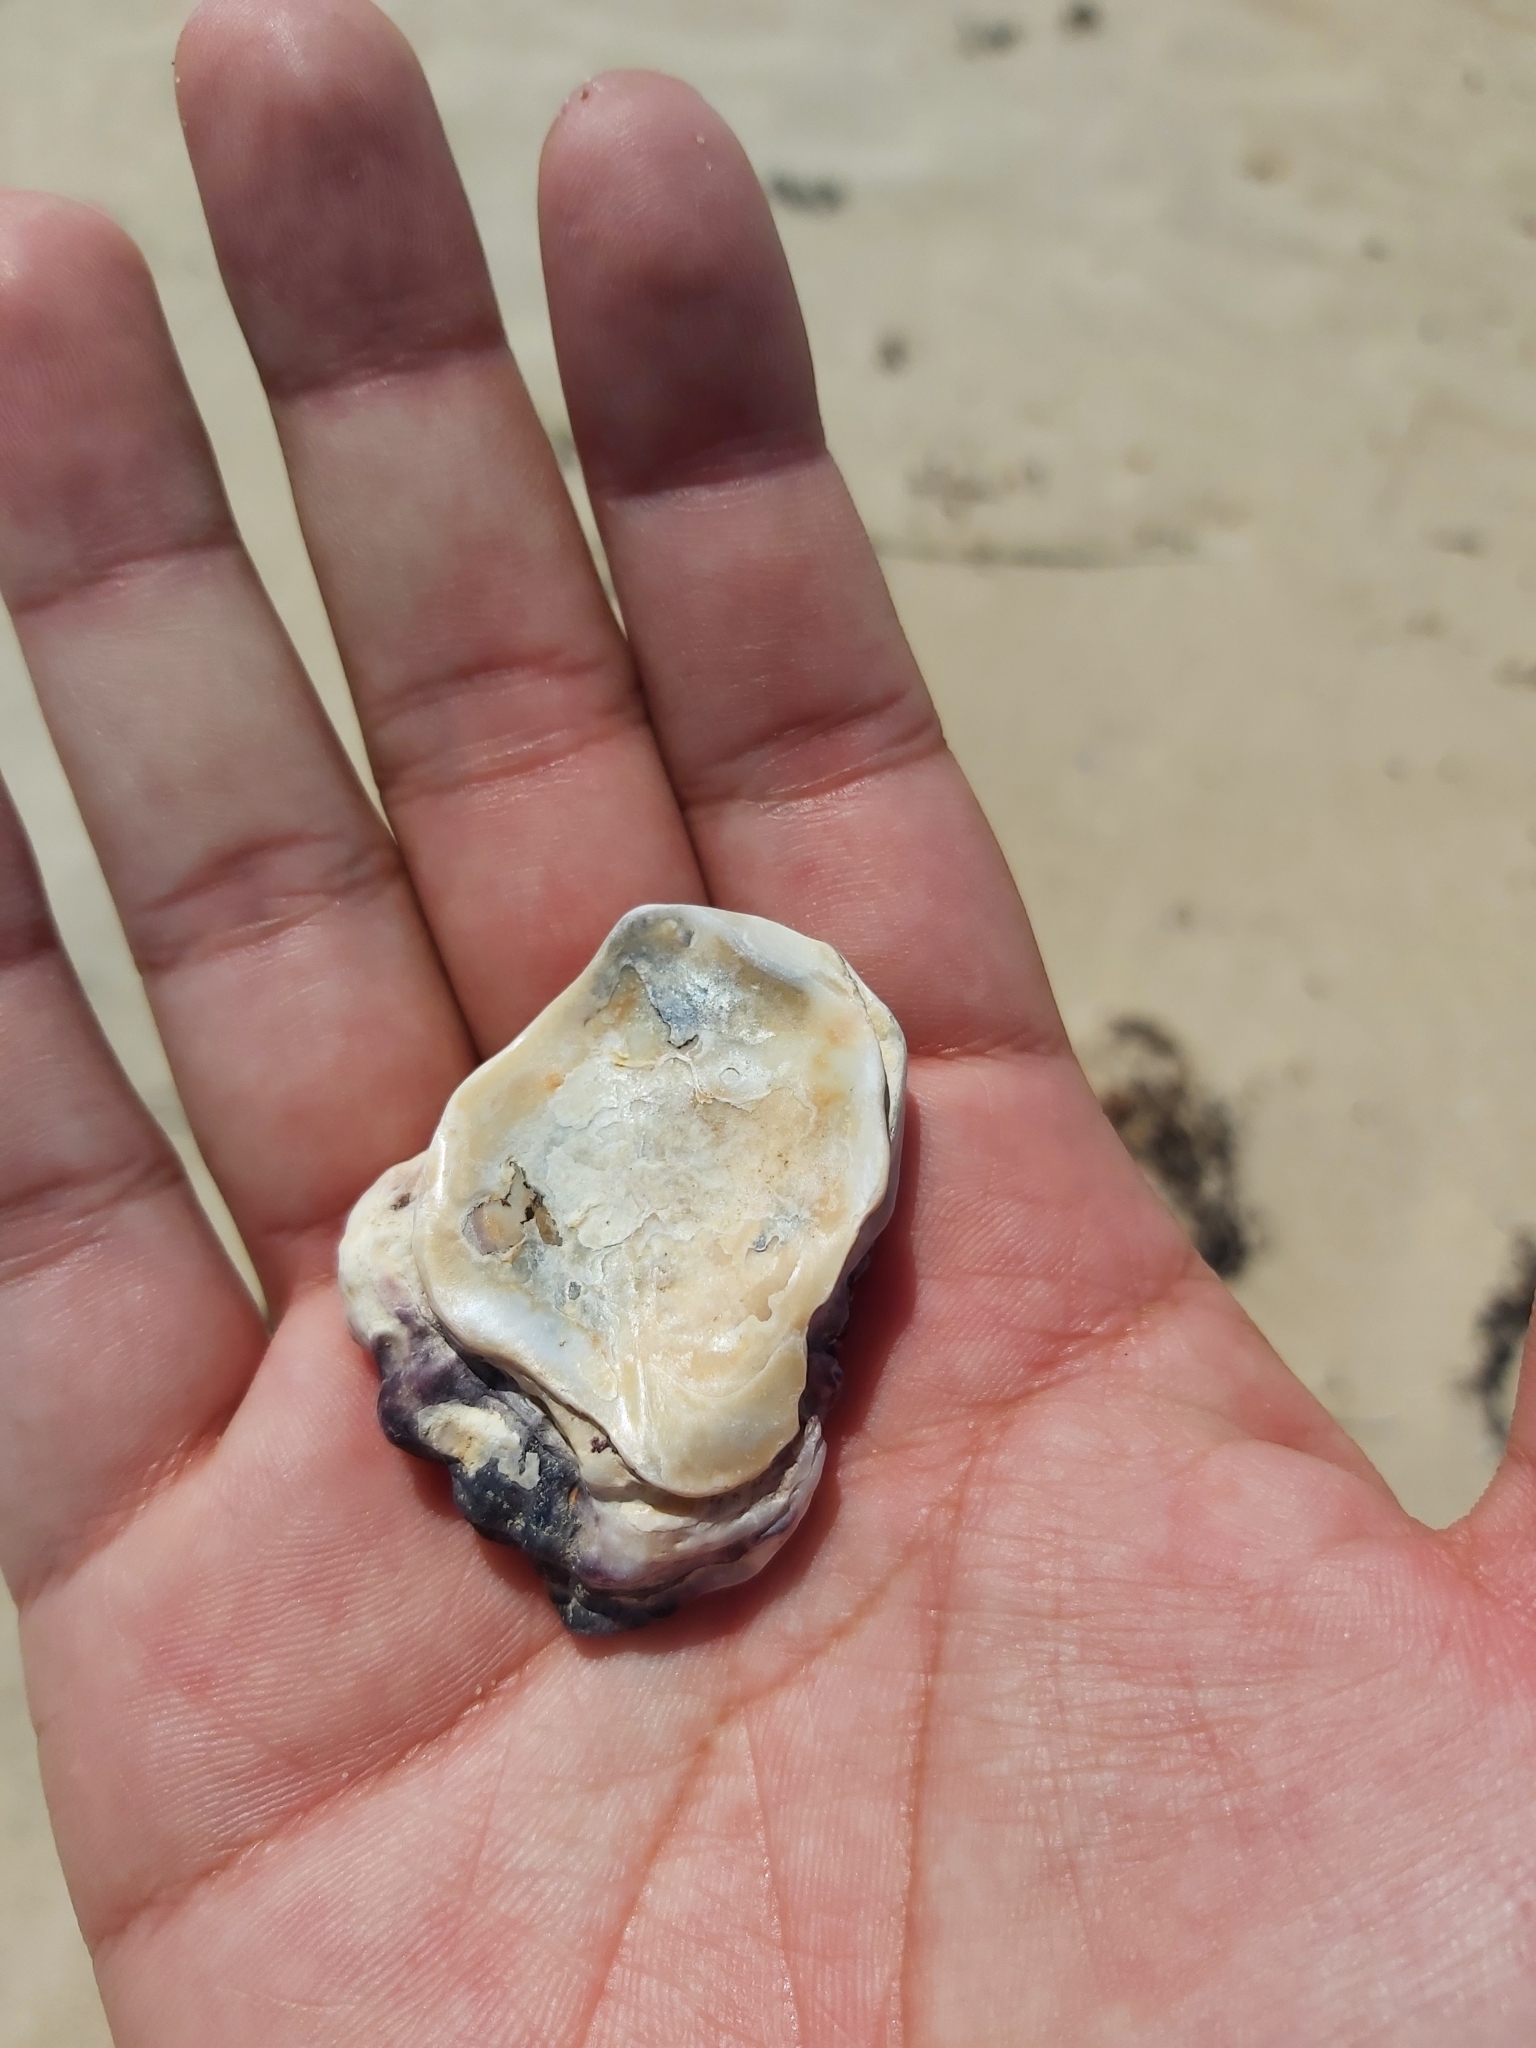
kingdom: Animalia
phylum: Mollusca
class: Bivalvia
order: Ostreida
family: Ostreidae
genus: Saccostrea
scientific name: Saccostrea glomerata
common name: Sydney cupped oyster
